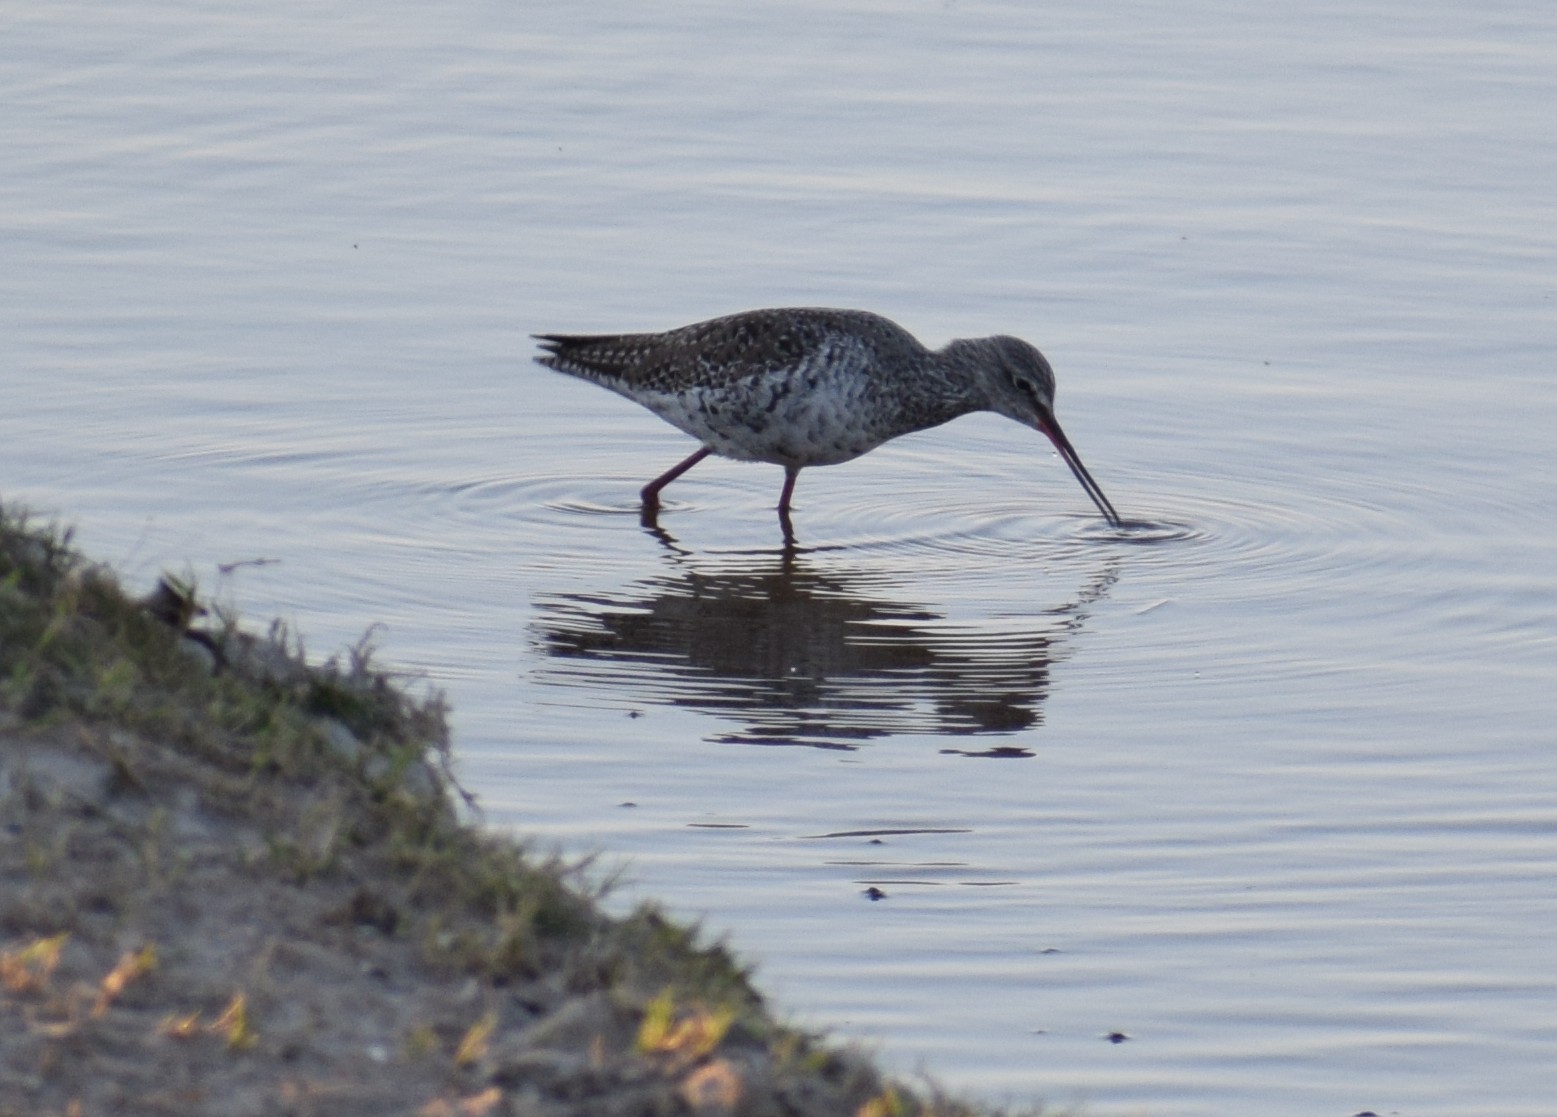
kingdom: Animalia
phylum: Chordata
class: Aves
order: Charadriiformes
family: Scolopacidae
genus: Tringa
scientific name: Tringa erythropus
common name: Spotted redshank
